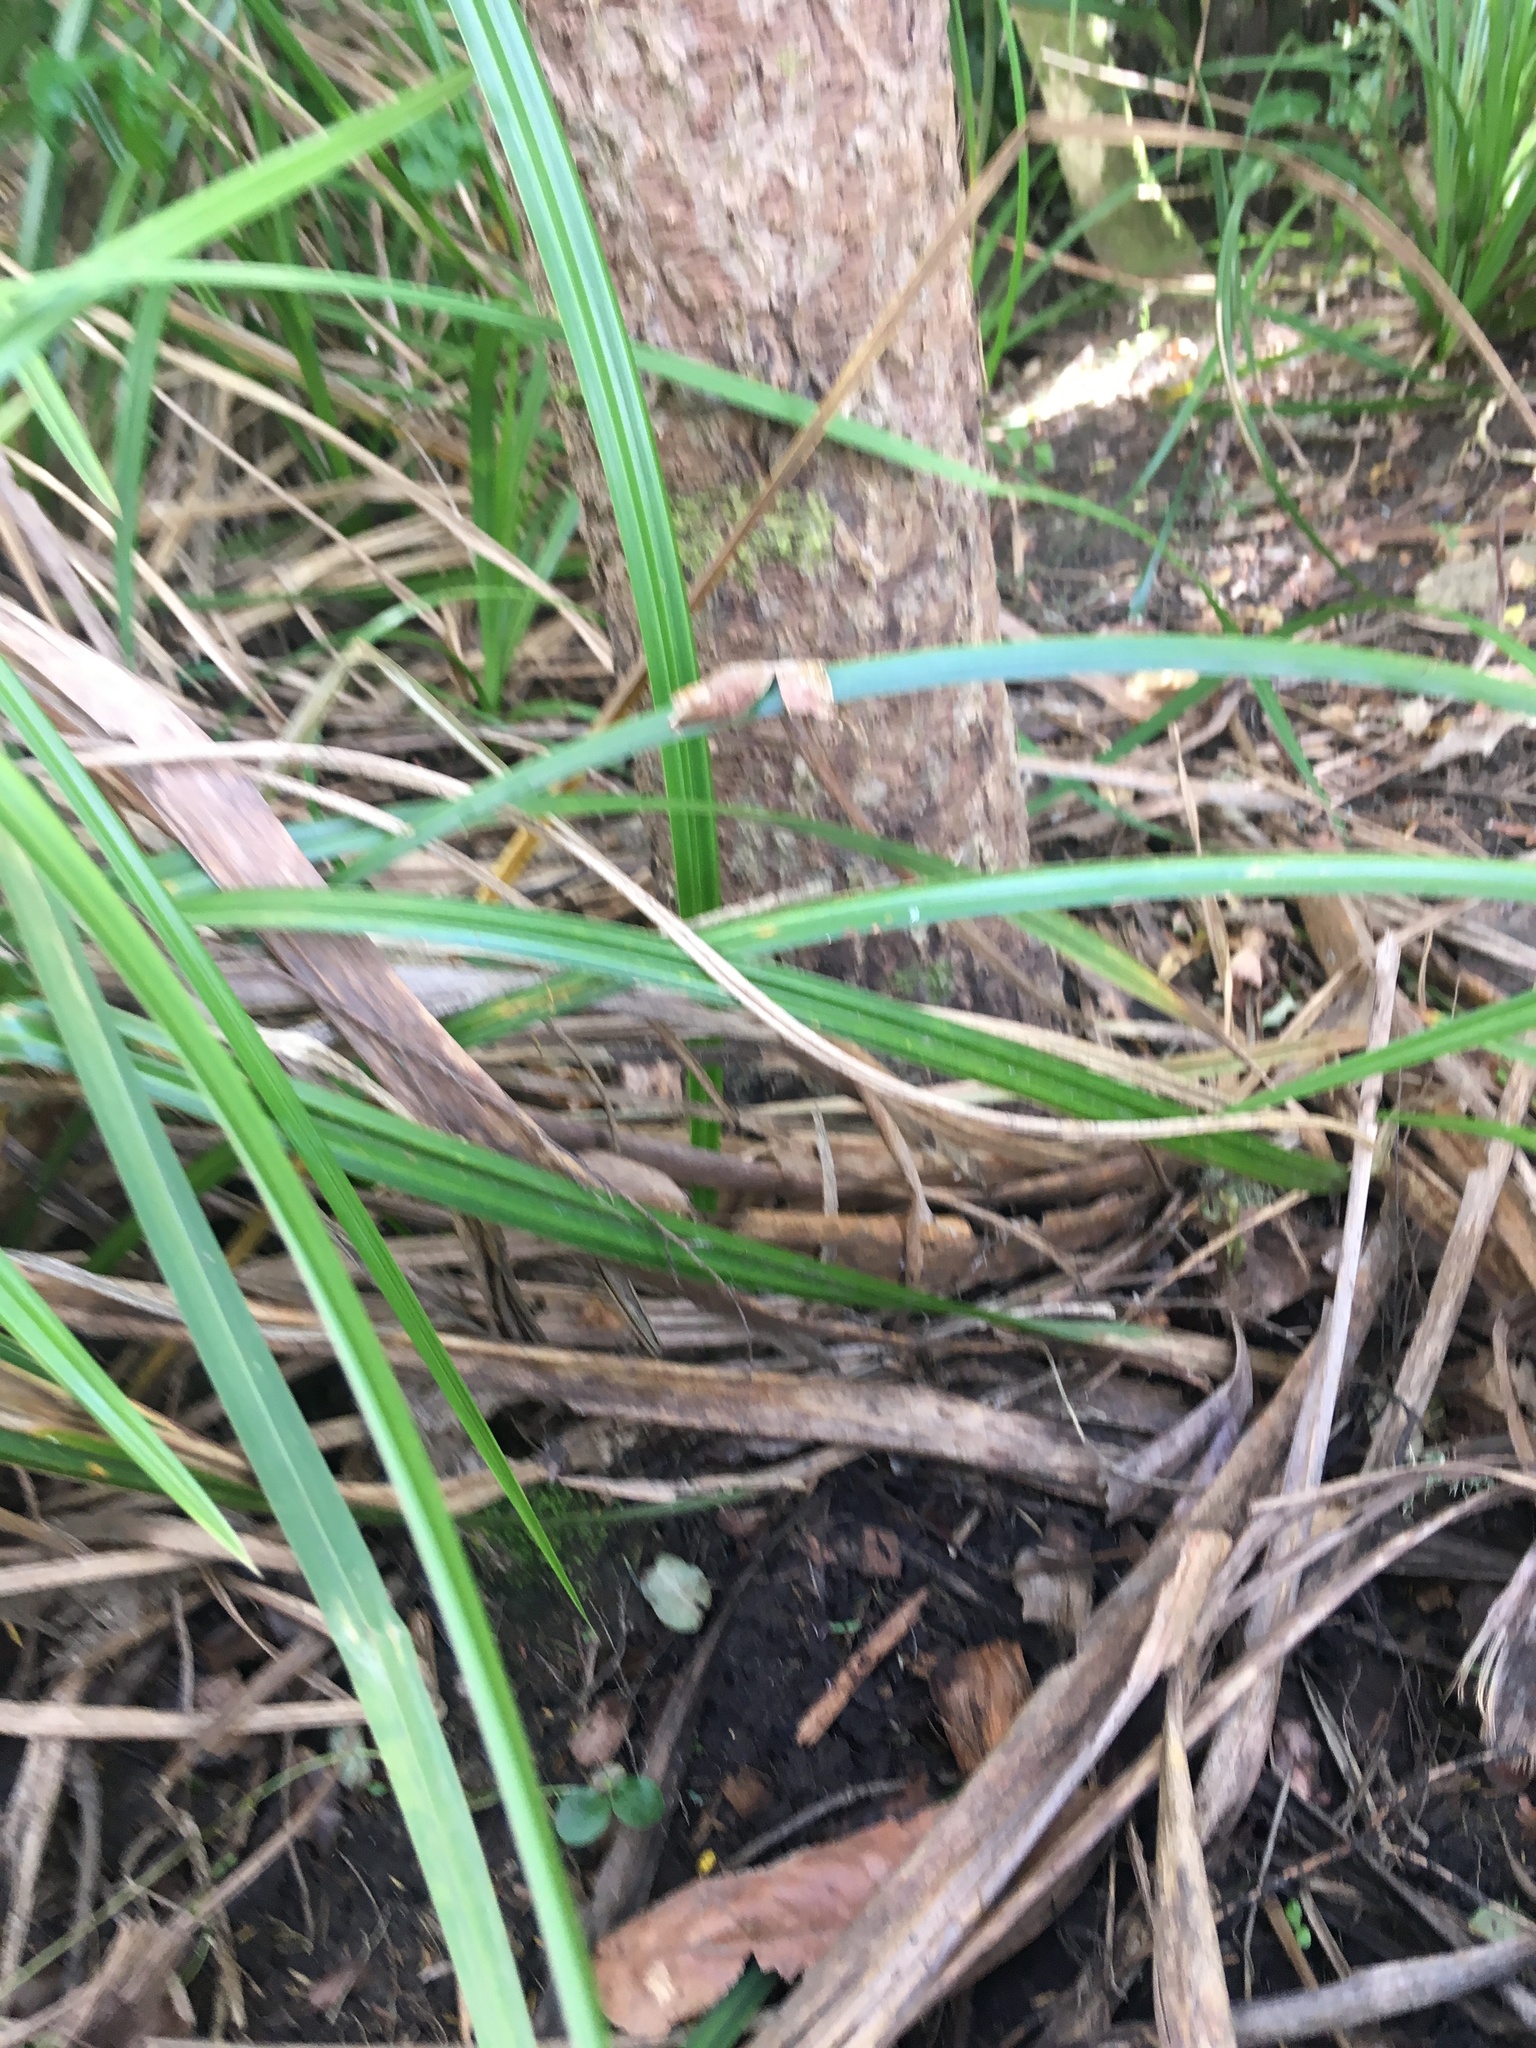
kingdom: Plantae
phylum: Tracheophyta
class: Magnoliopsida
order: Lamiales
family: Oleaceae
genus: Ligustrum
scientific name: Ligustrum sinense
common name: Chinese privet
